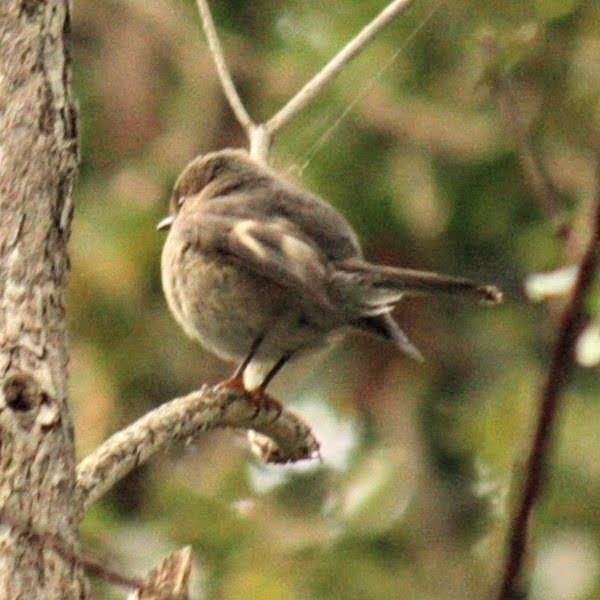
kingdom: Animalia
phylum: Chordata
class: Aves
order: Passeriformes
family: Petroicidae
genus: Petroica
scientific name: Petroica rosea
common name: Rose robin
